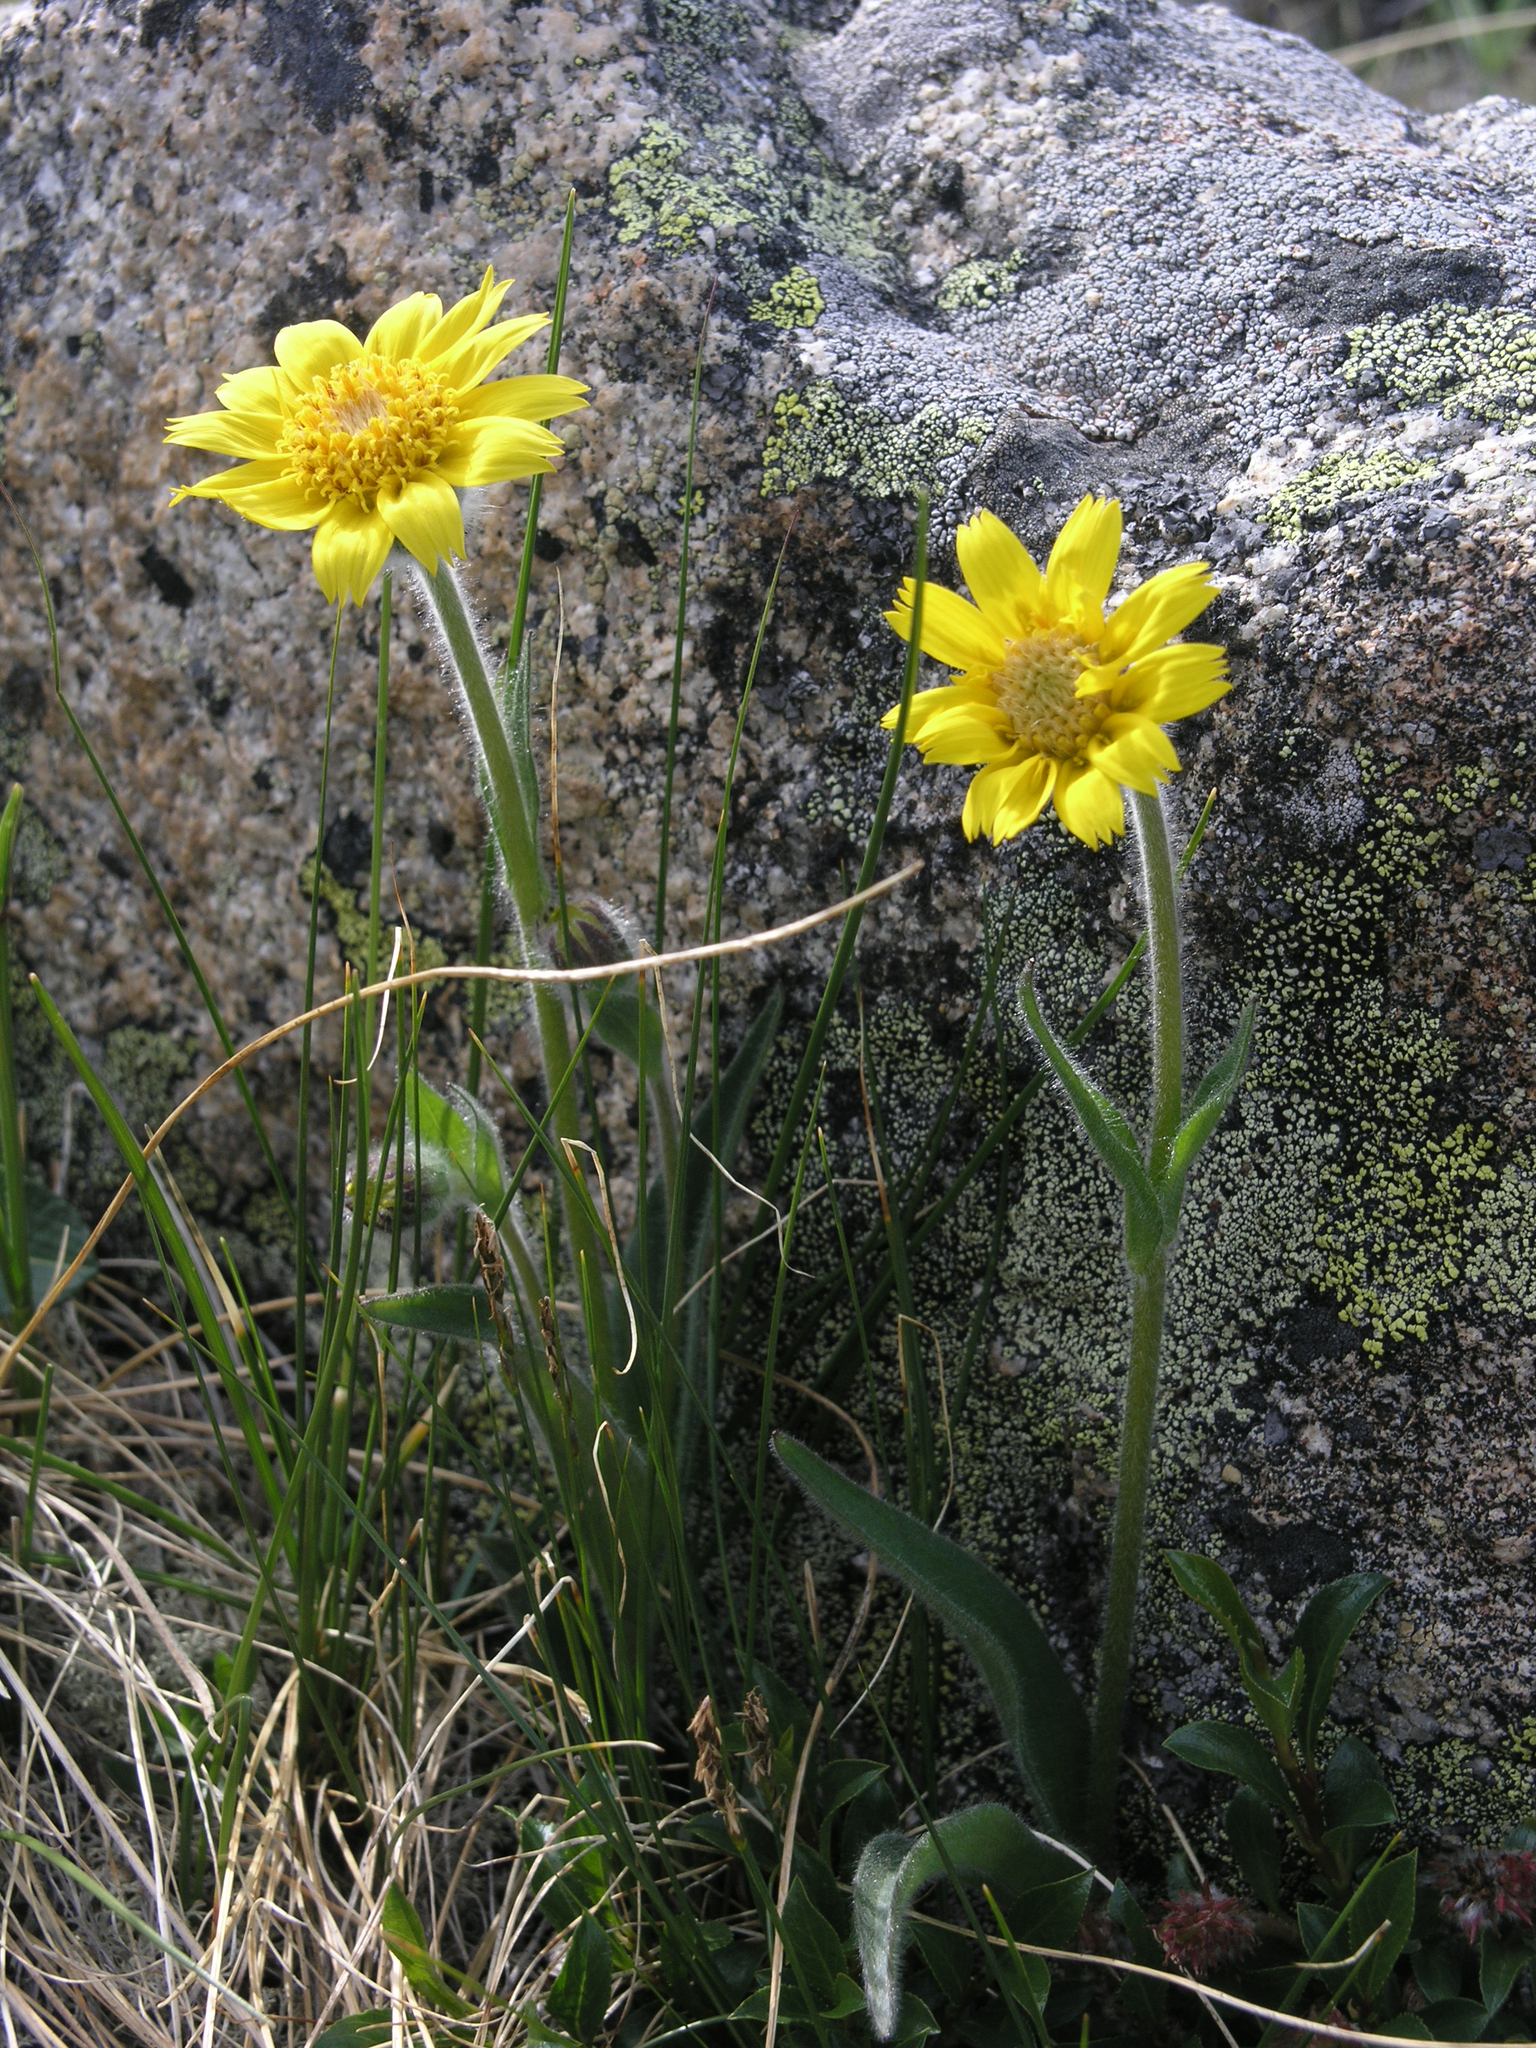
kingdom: Plantae
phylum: Tracheophyta
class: Magnoliopsida
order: Asterales
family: Asteraceae
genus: Arnica
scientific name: Arnica angustifolia
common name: Arctic arnica
